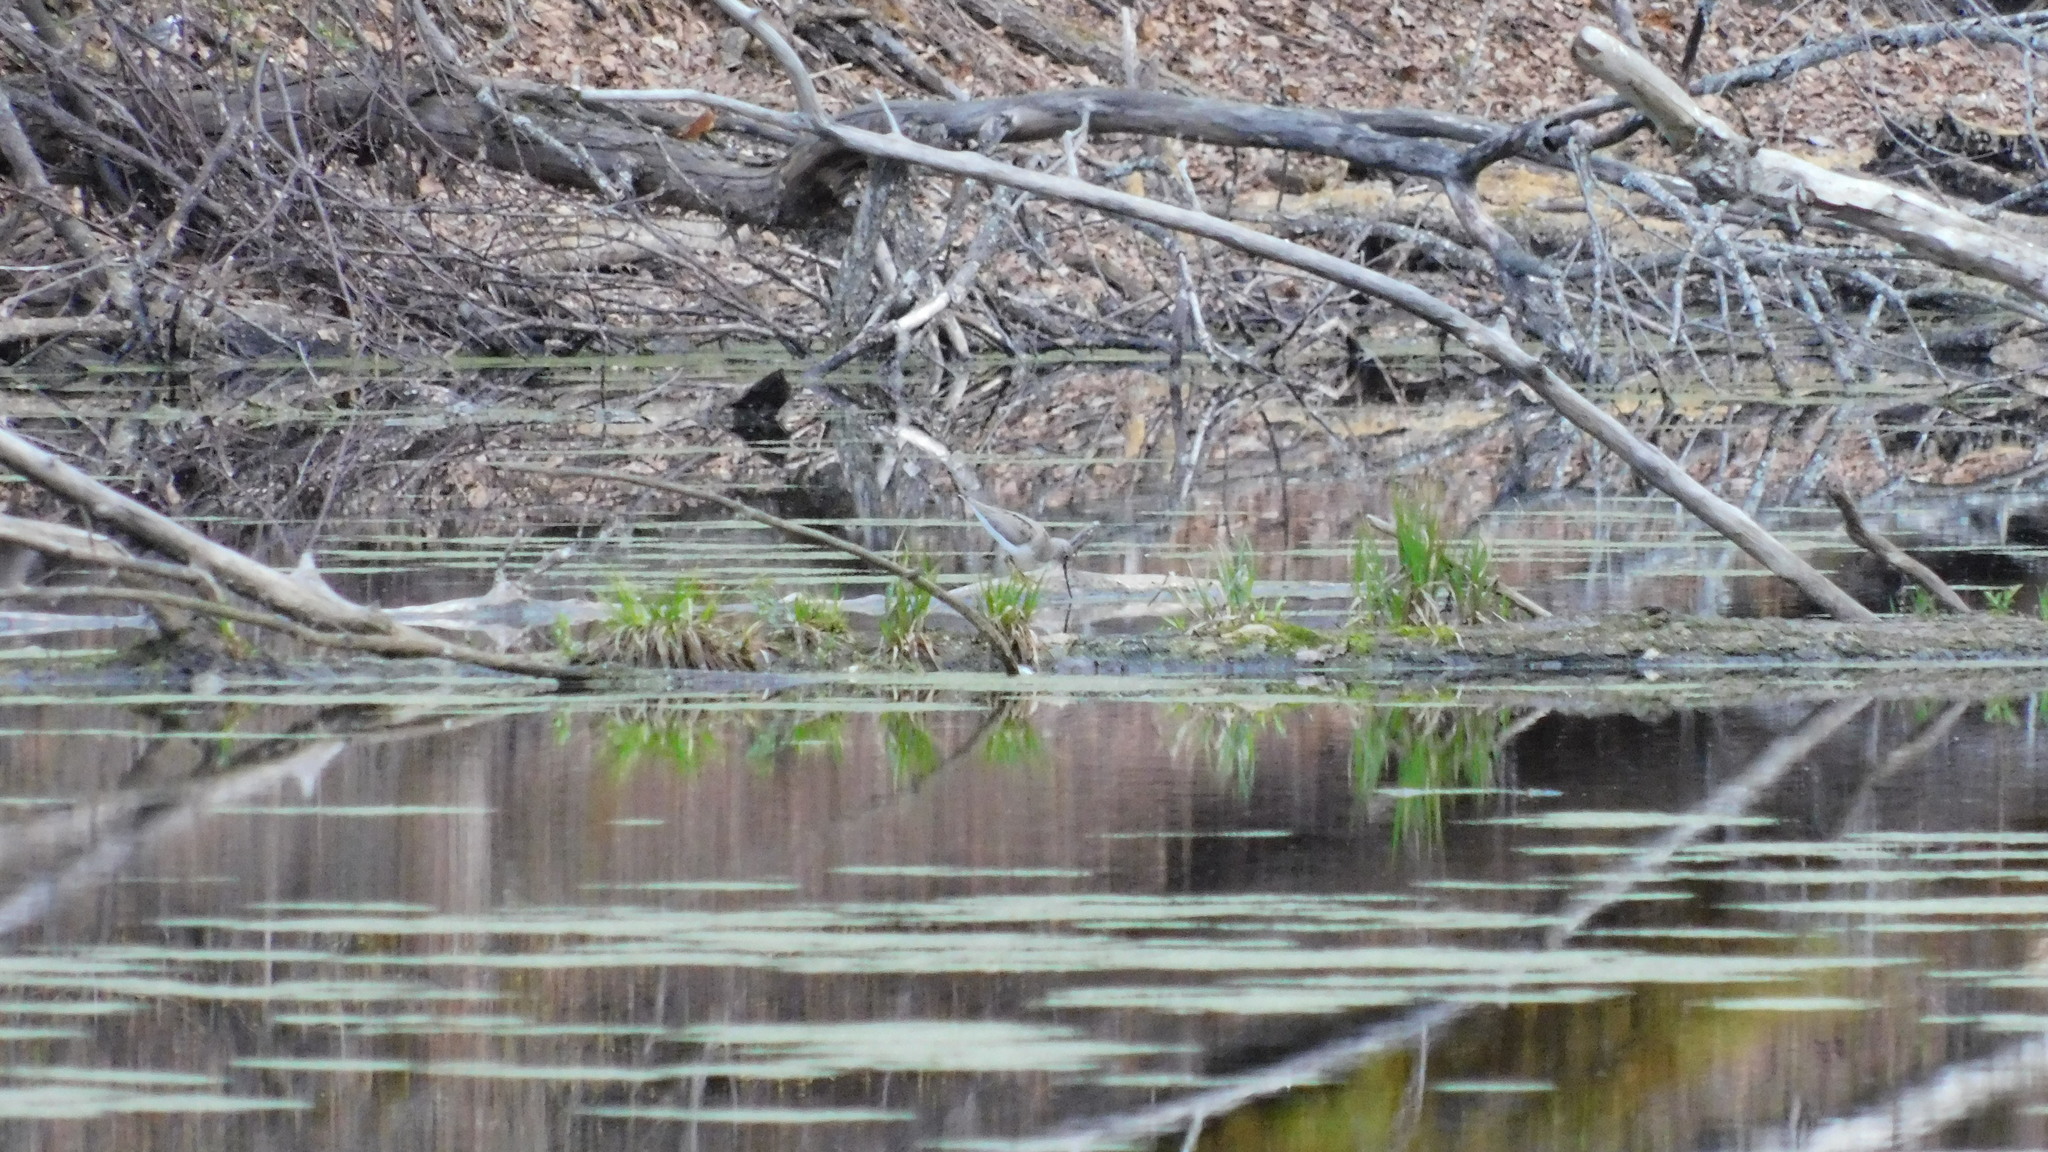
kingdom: Animalia
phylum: Chordata
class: Aves
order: Charadriiformes
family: Scolopacidae
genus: Xenus
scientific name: Xenus cinereus
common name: Terek sandpiper
